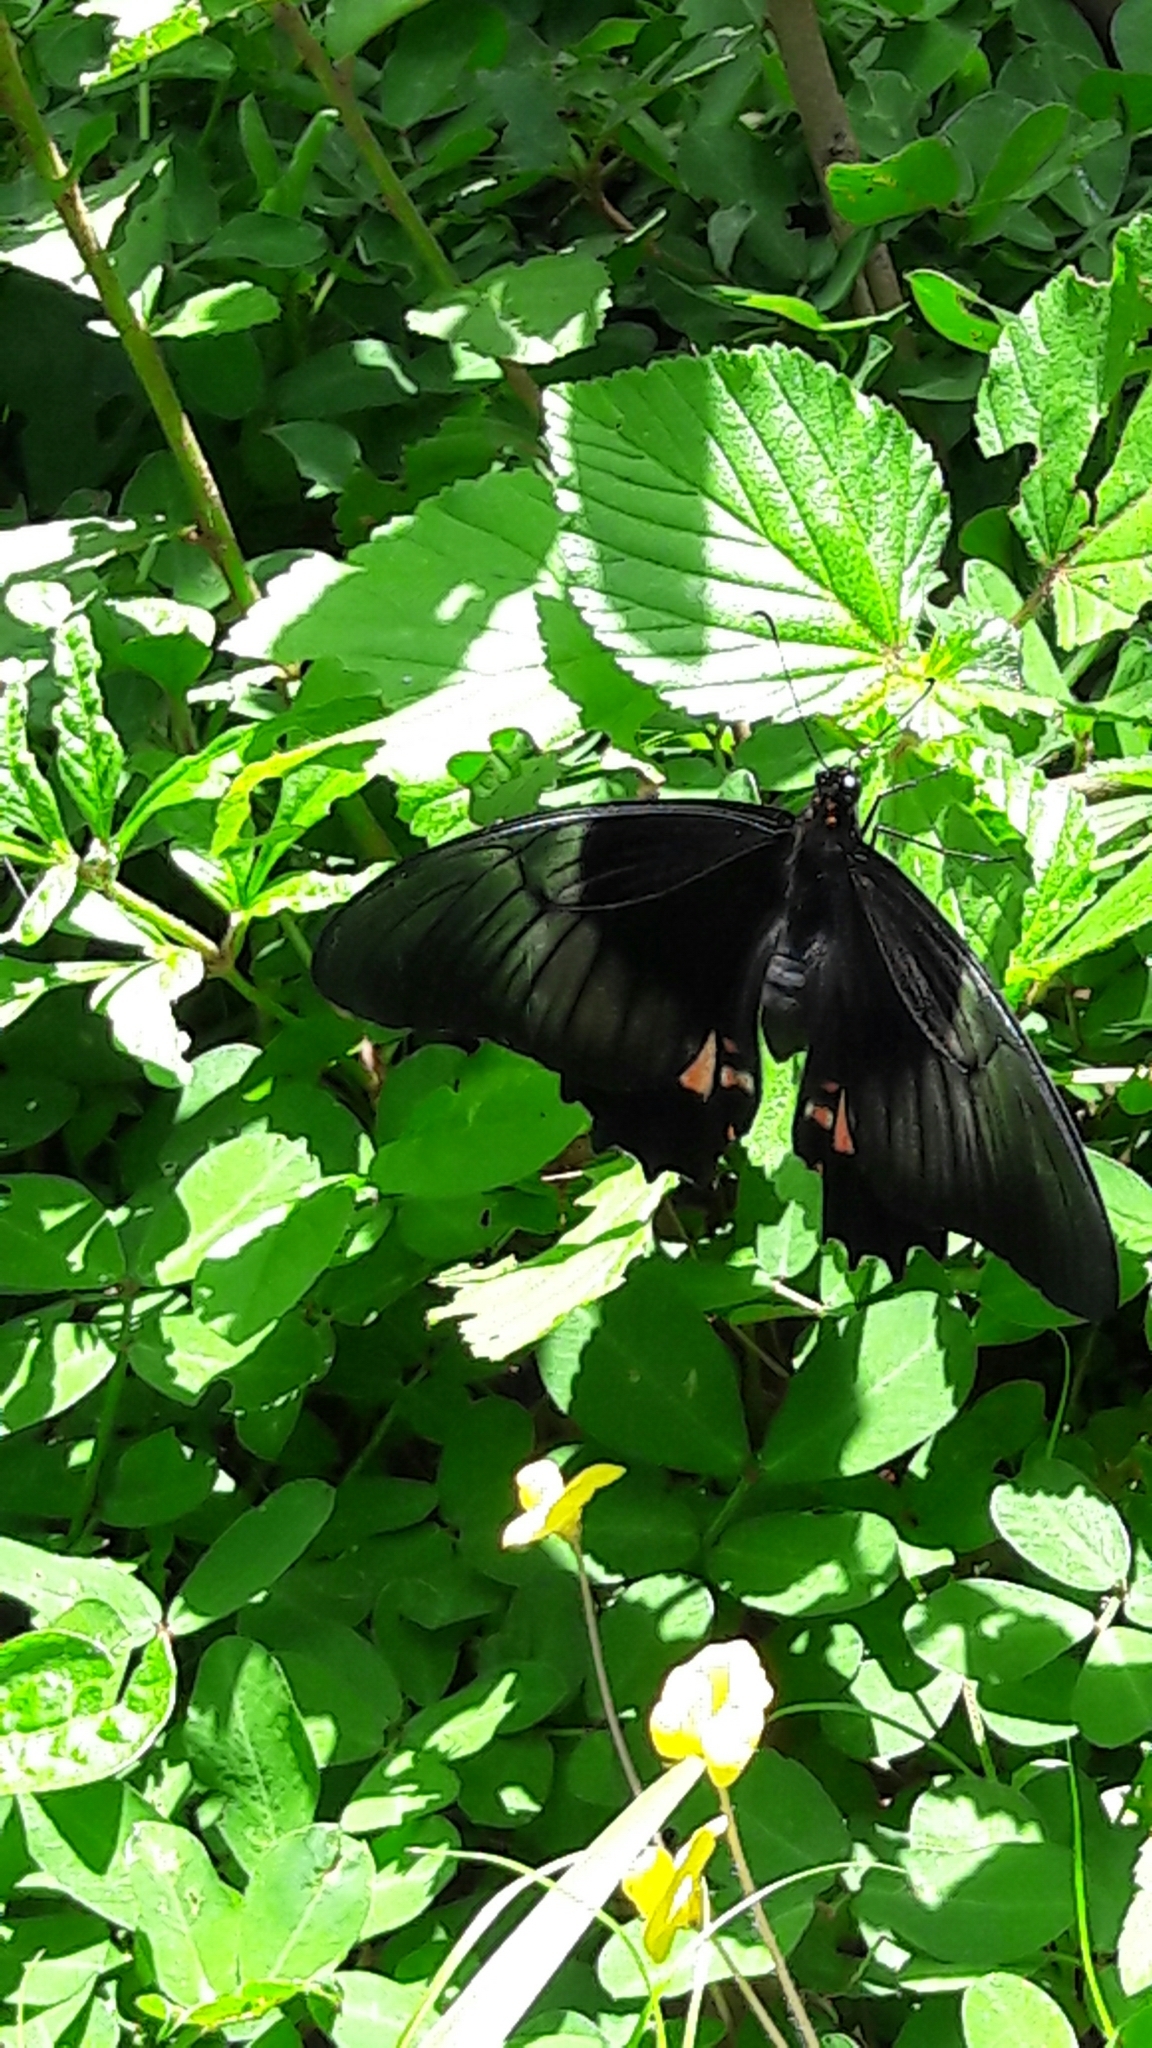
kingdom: Animalia
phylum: Arthropoda
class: Insecta
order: Lepidoptera
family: Papilionidae
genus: Papilio
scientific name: Papilio anchisiades
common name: Idaes swallowtail
